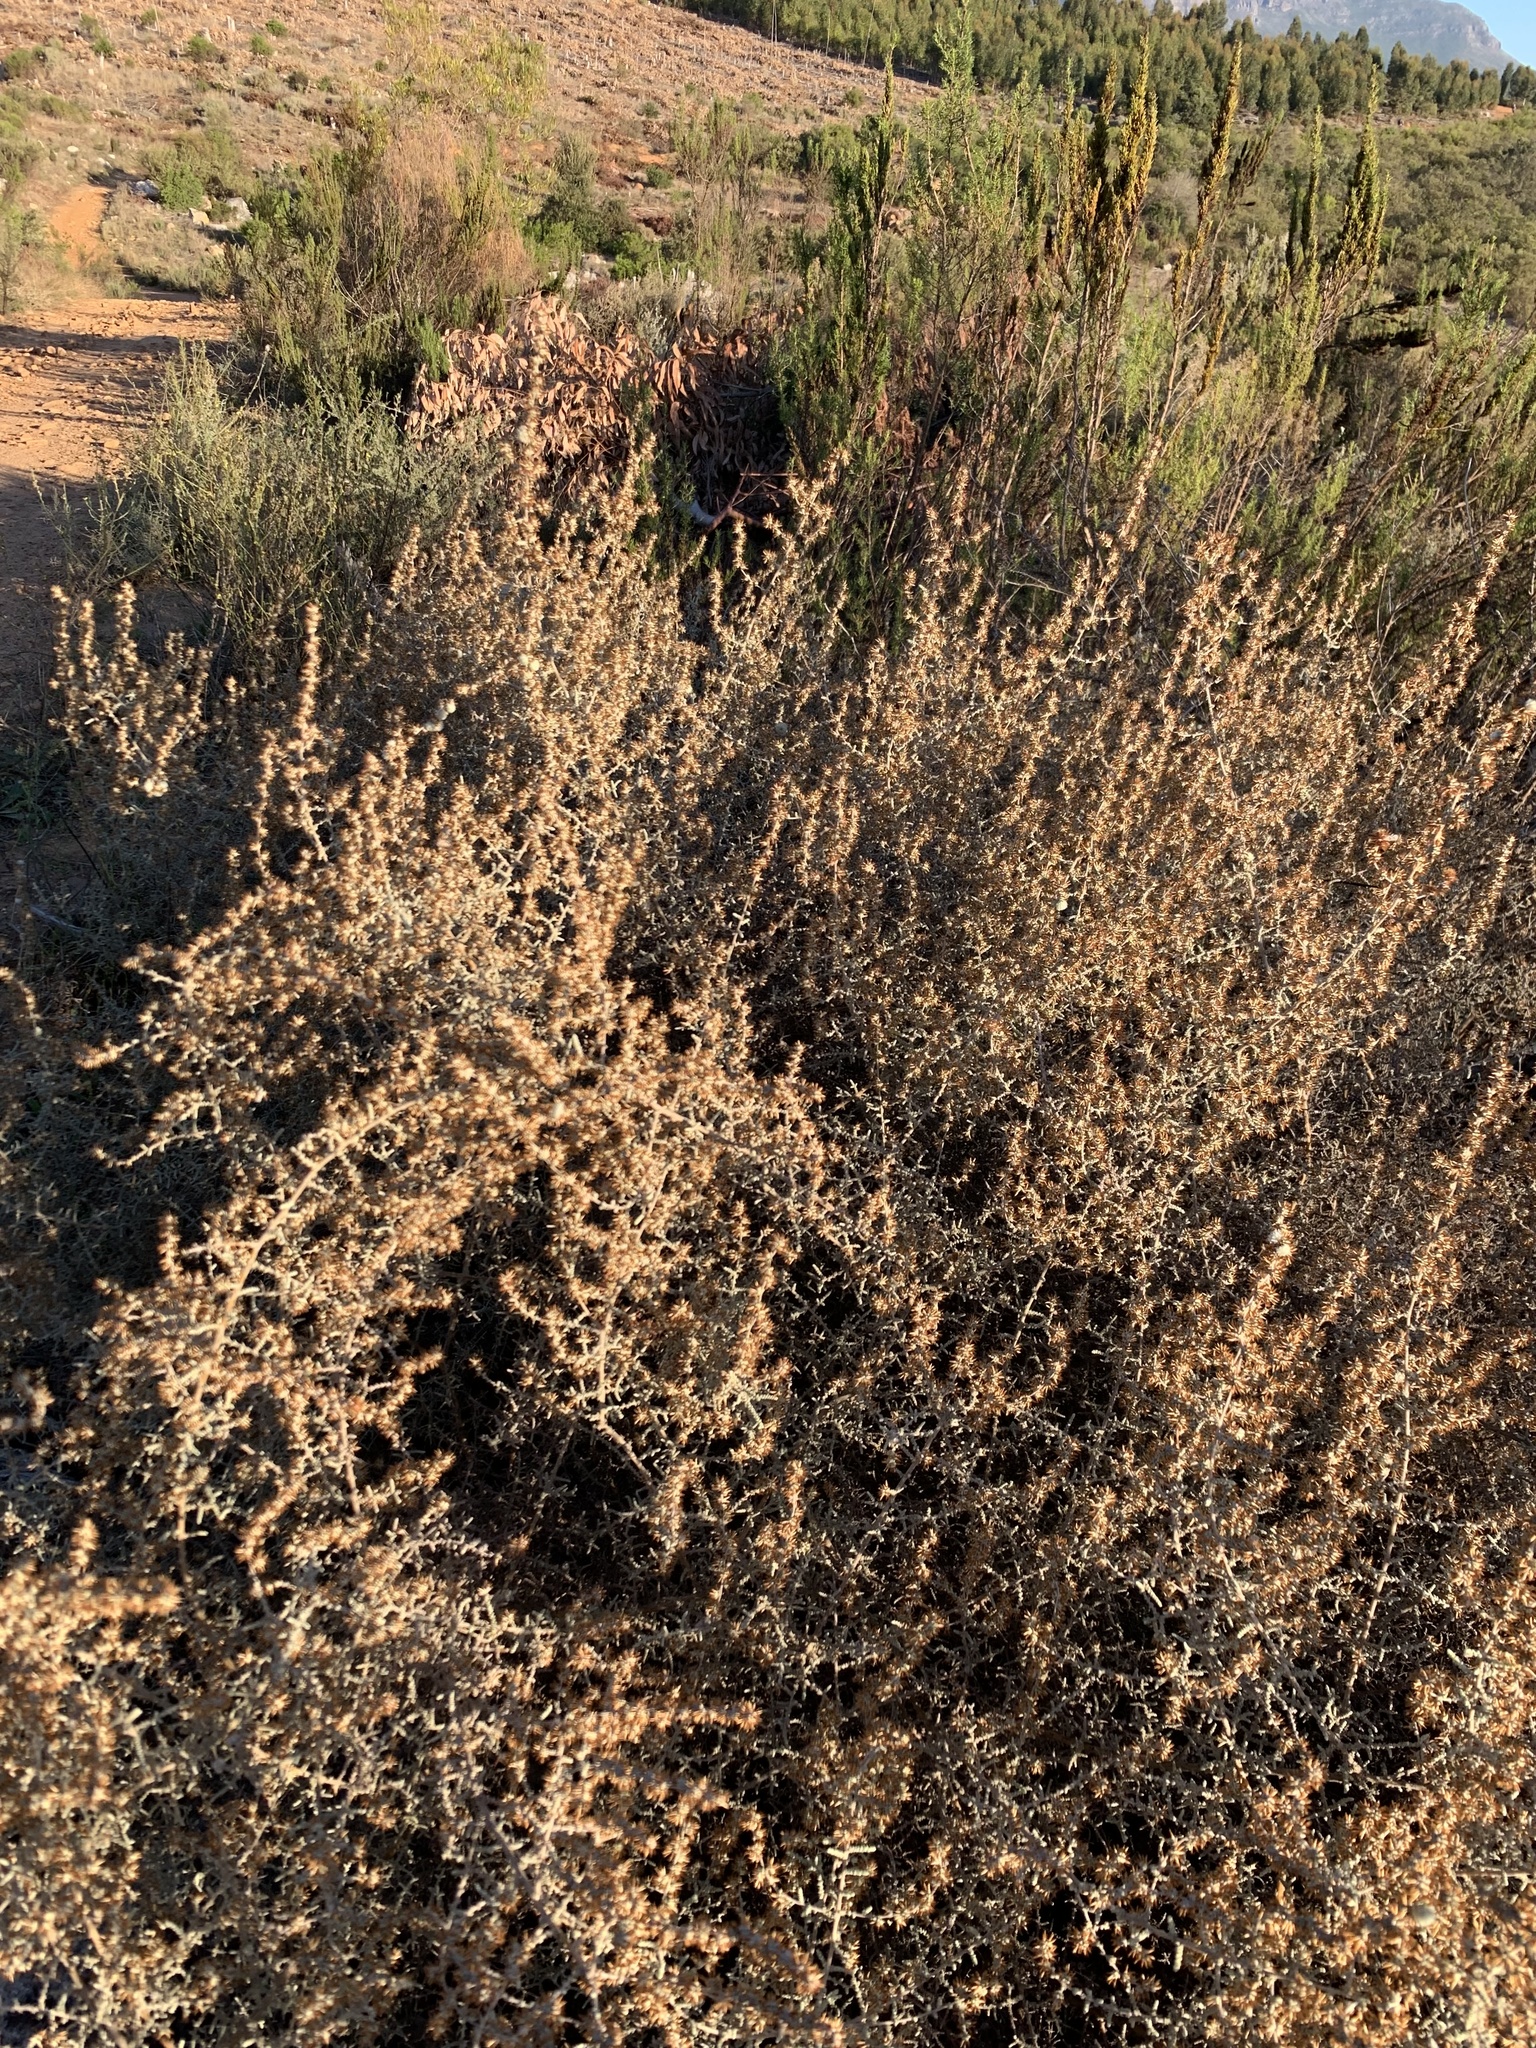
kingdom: Plantae
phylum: Tracheophyta
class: Magnoliopsida
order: Asterales
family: Asteraceae
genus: Seriphium
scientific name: Seriphium plumosum
